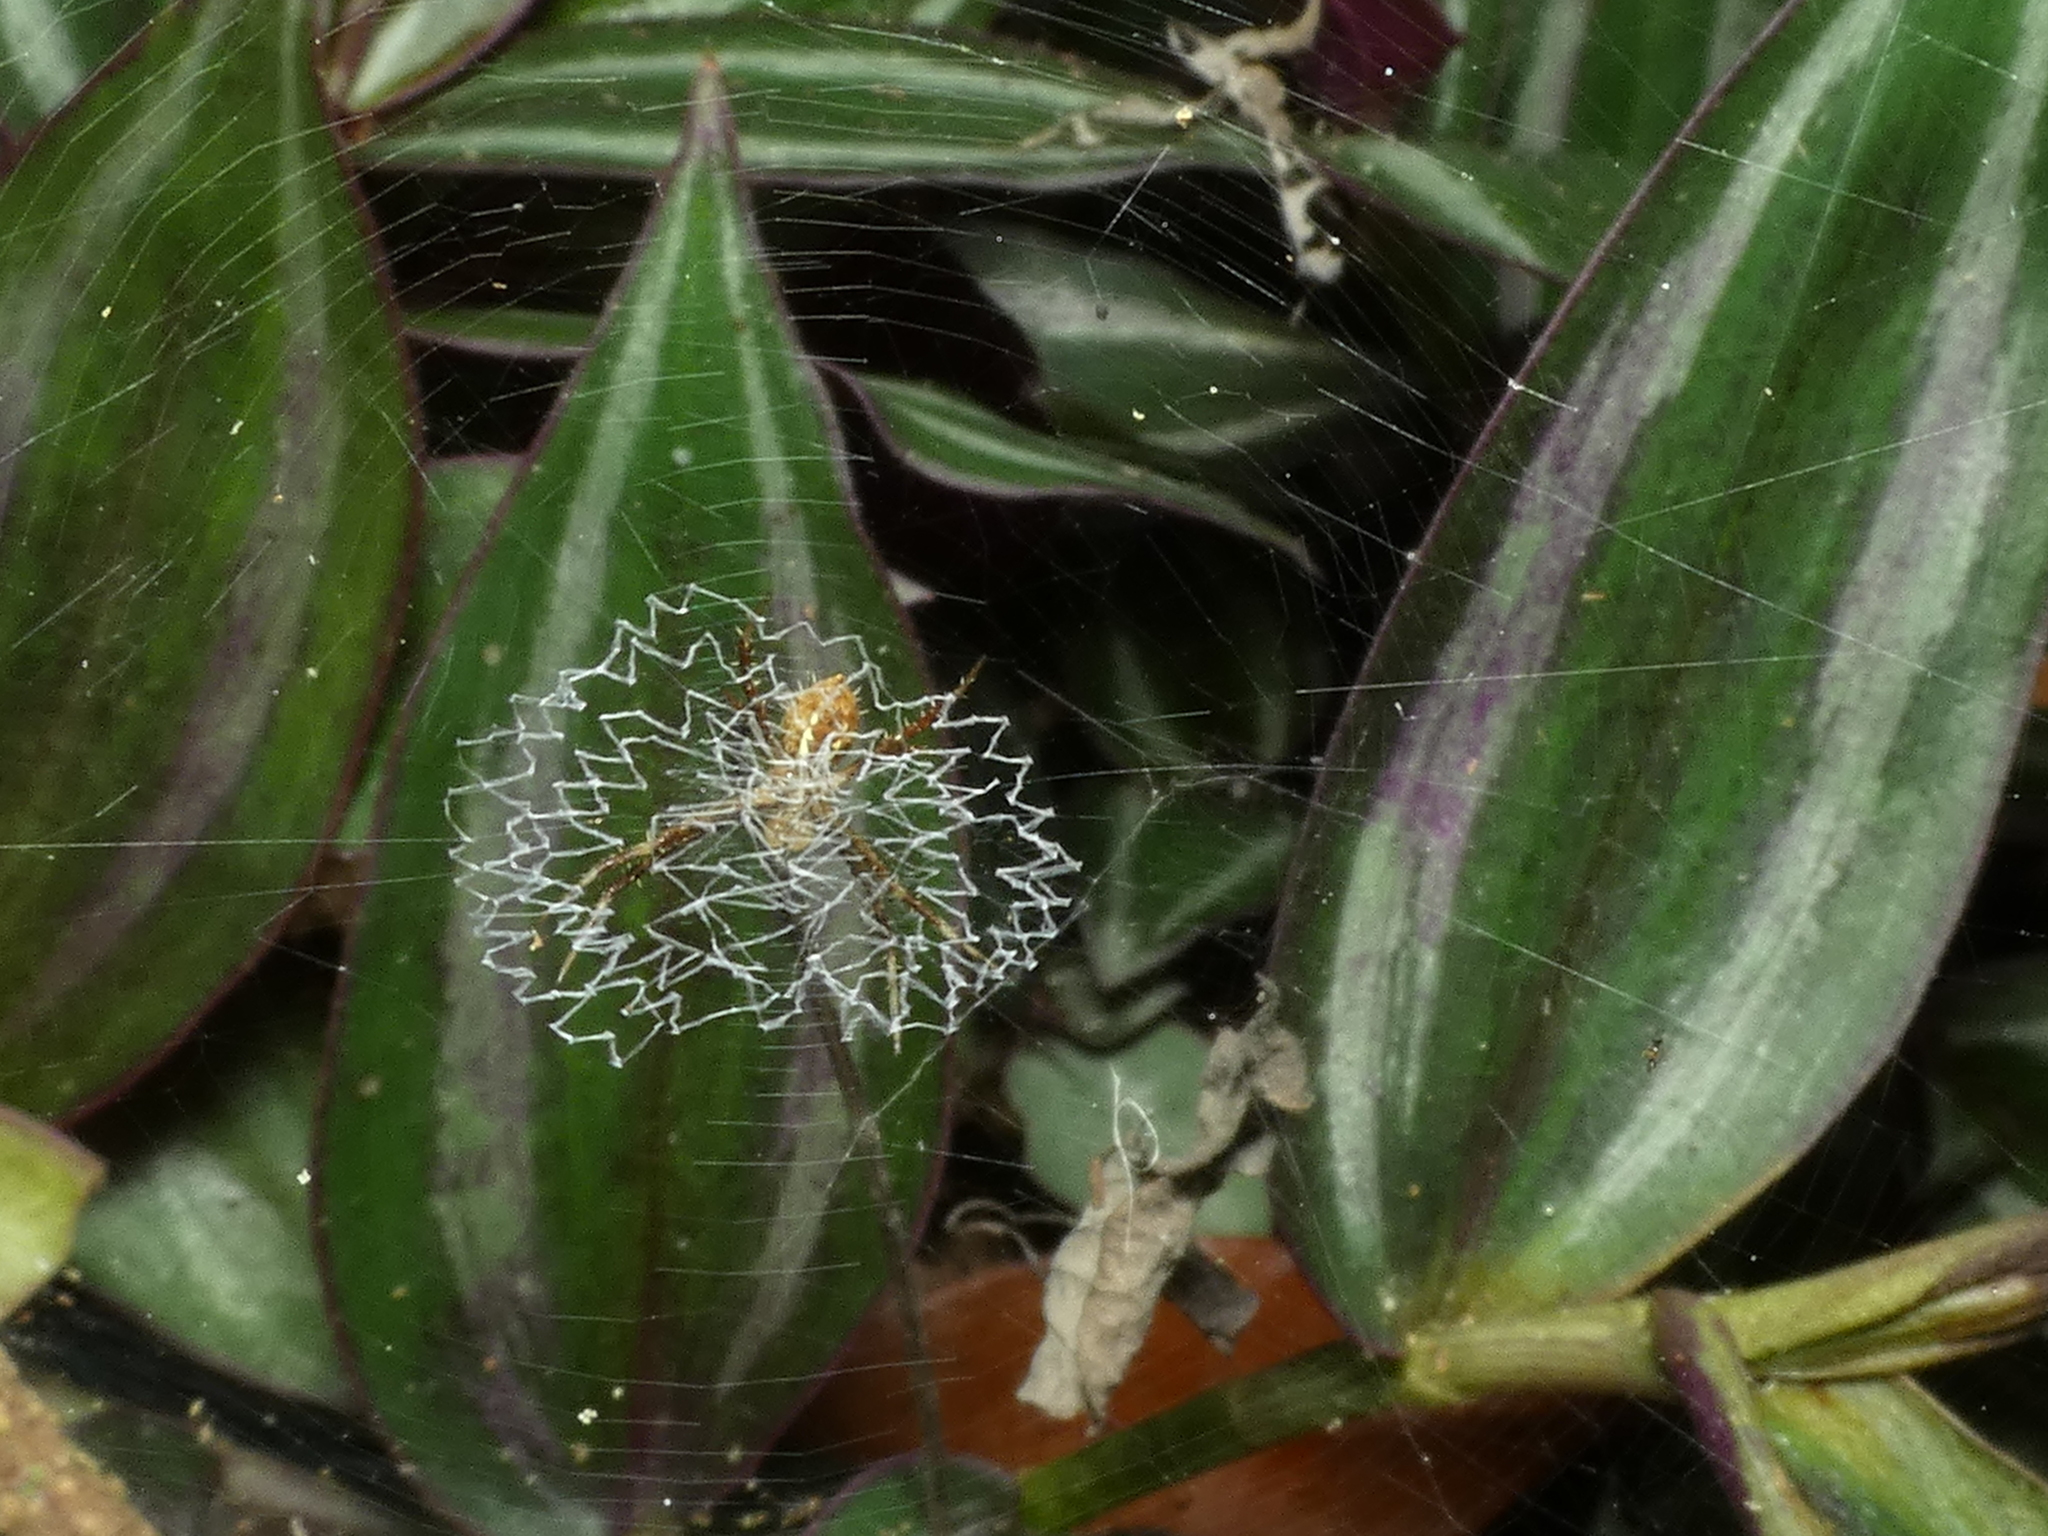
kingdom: Animalia
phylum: Arthropoda
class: Arachnida
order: Araneae
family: Araneidae
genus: Argiope
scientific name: Argiope argentata
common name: Orb weavers
